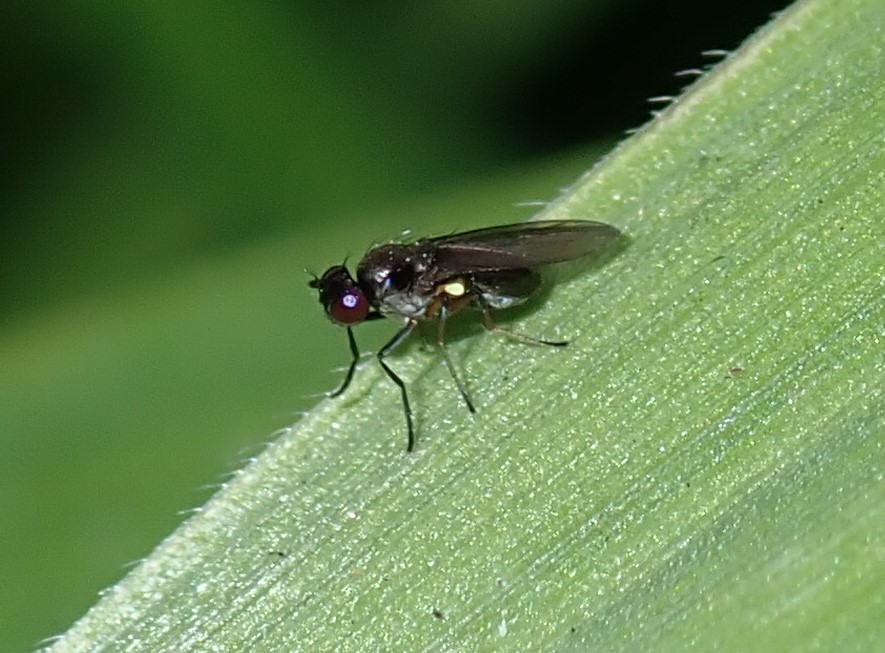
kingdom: Animalia
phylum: Arthropoda
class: Insecta
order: Diptera
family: Ephydridae
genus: Hydrellia
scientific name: Hydrellia tritici
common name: Shore fly
